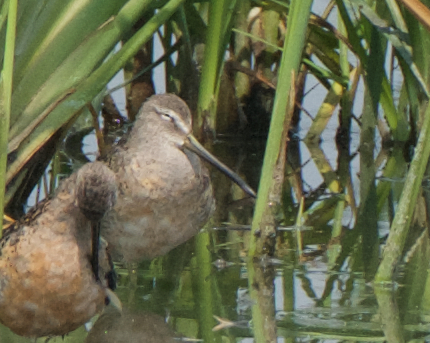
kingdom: Animalia
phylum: Chordata
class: Aves
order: Charadriiformes
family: Scolopacidae
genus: Limnodromus
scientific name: Limnodromus scolopaceus
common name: Long-billed dowitcher
